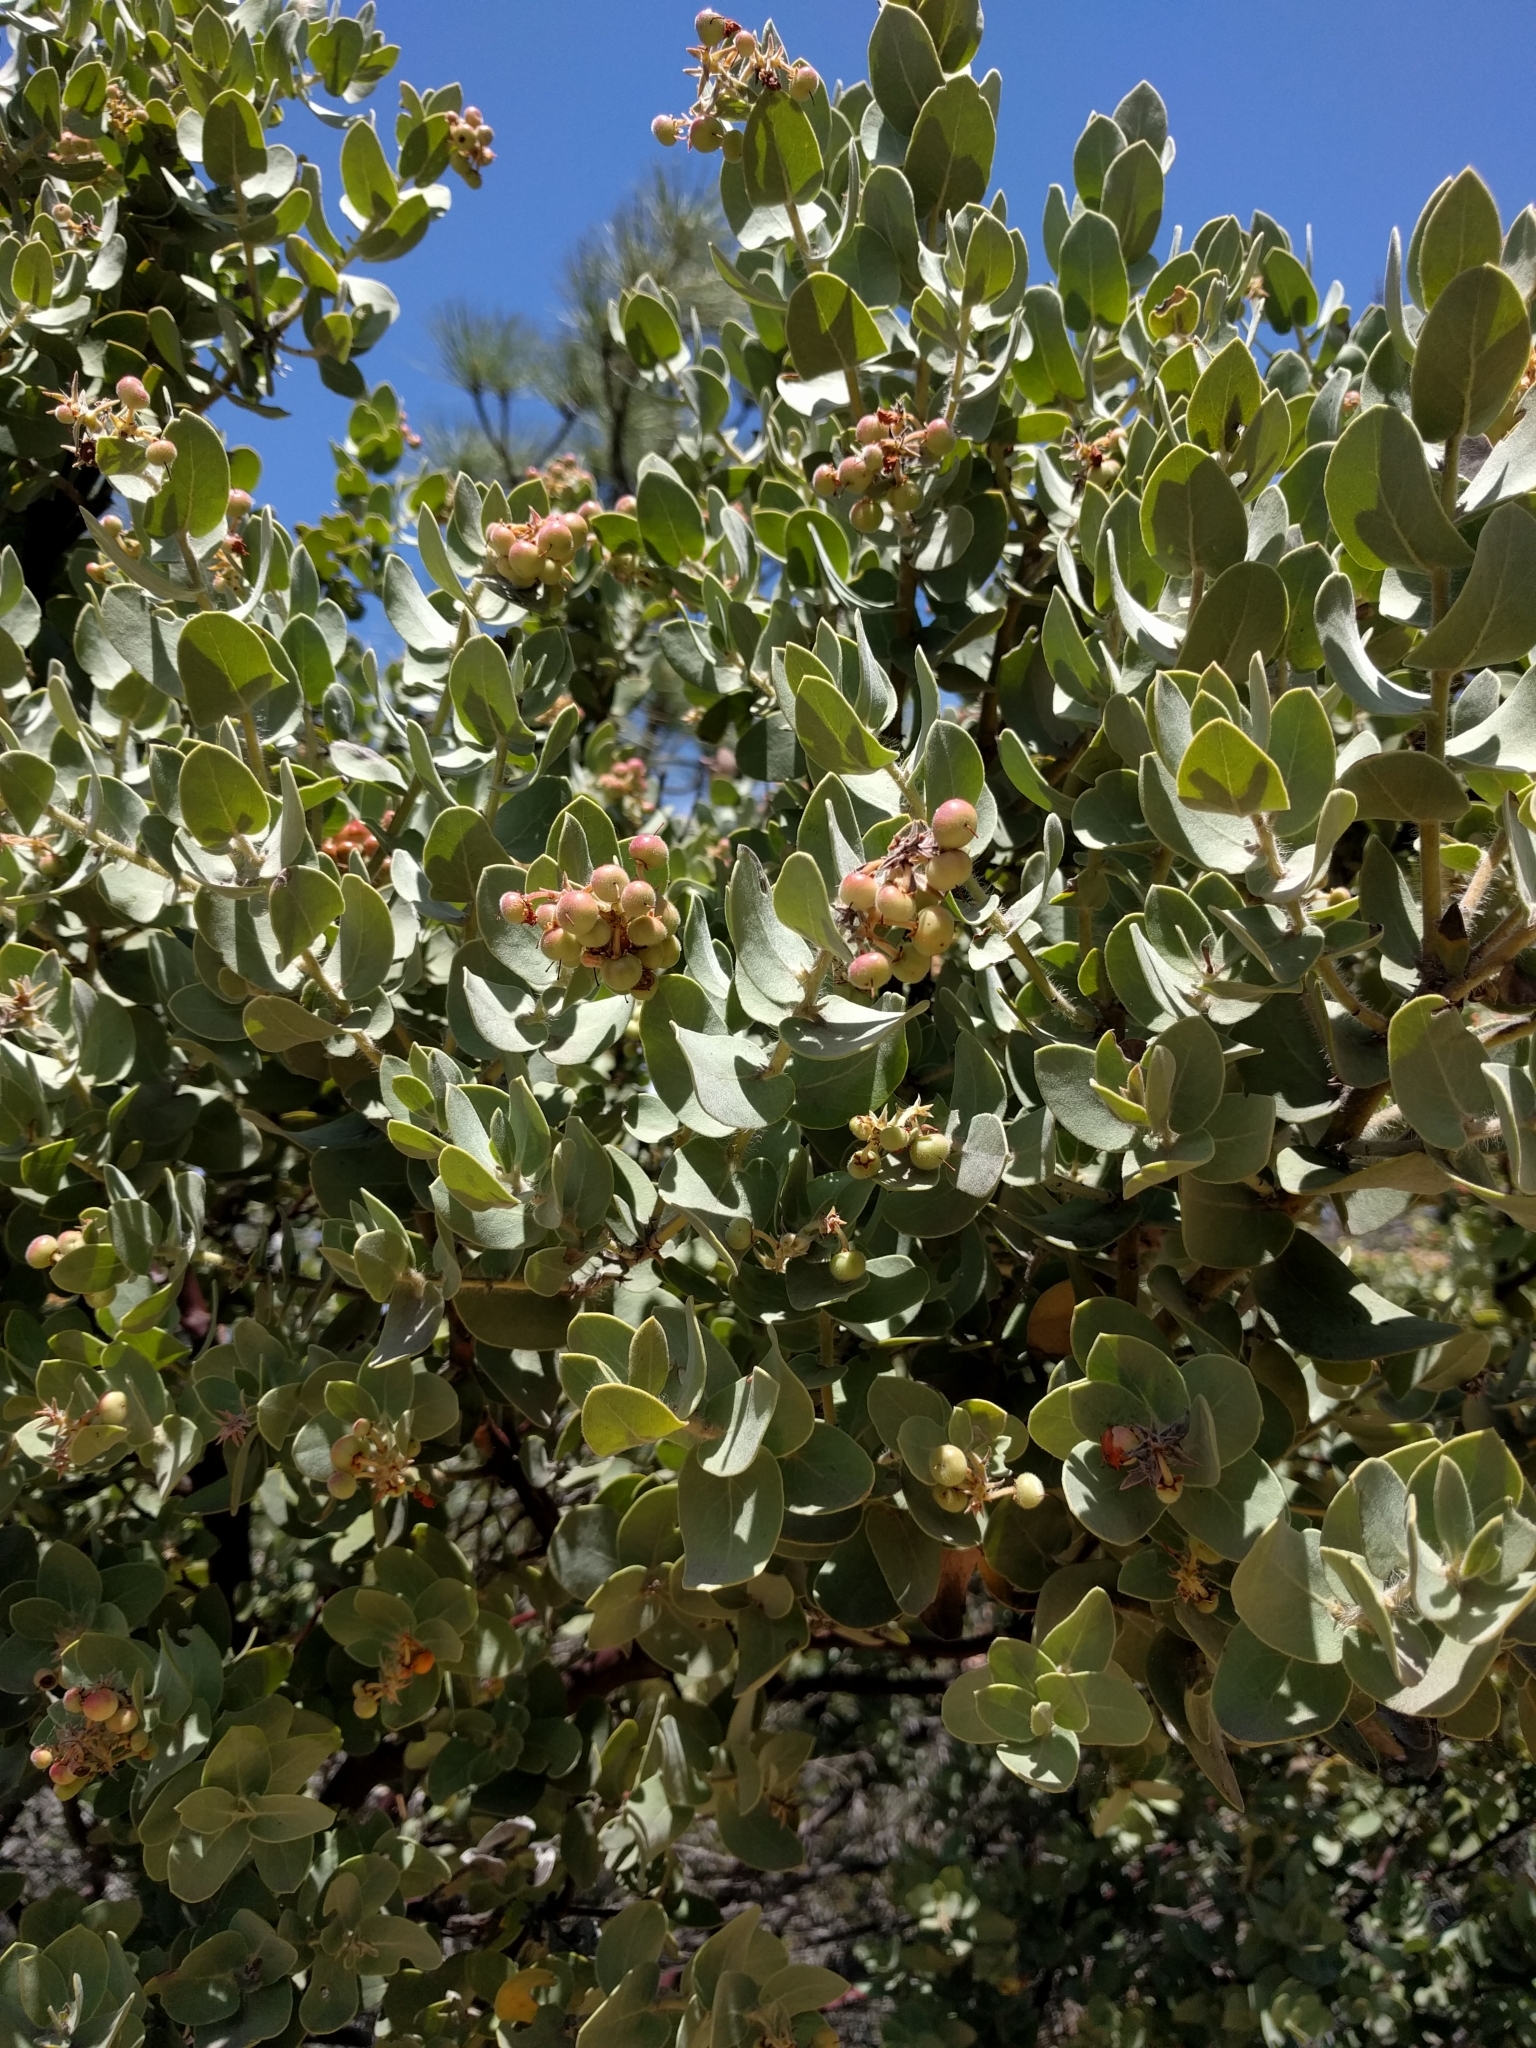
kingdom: Plantae
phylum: Tracheophyta
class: Magnoliopsida
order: Ericales
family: Ericaceae
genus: Arctostaphylos
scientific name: Arctostaphylos auriculata
